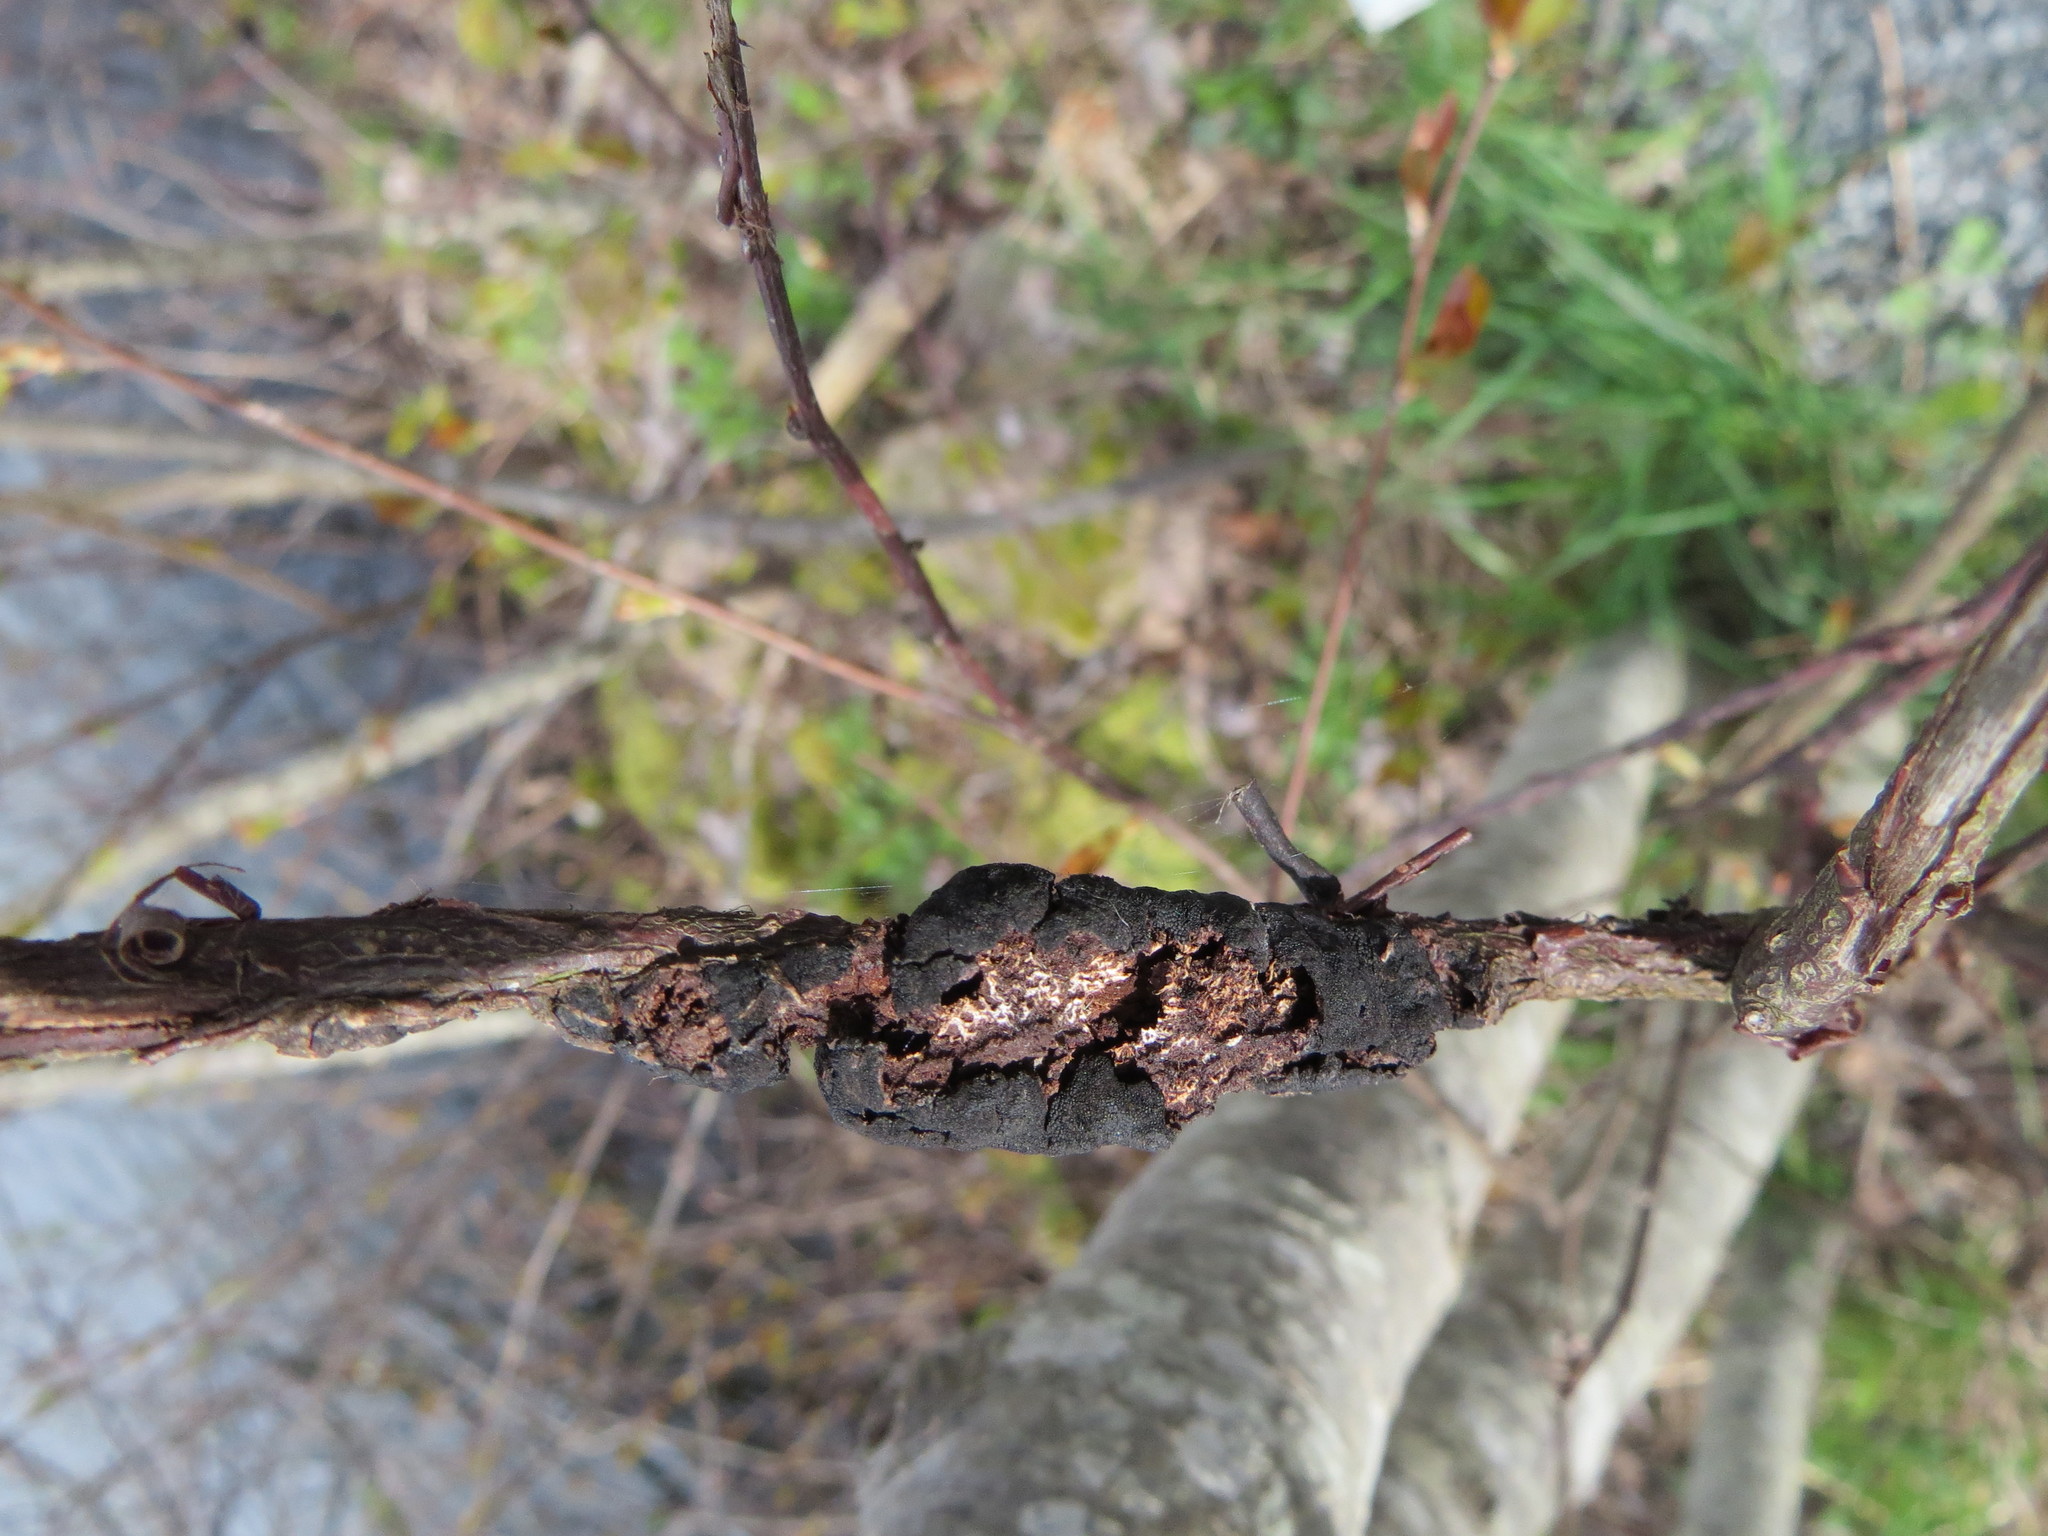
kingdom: Fungi
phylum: Ascomycota
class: Dothideomycetes
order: Venturiales
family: Venturiaceae
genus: Apiosporina
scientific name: Apiosporina morbosa
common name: Black knot
